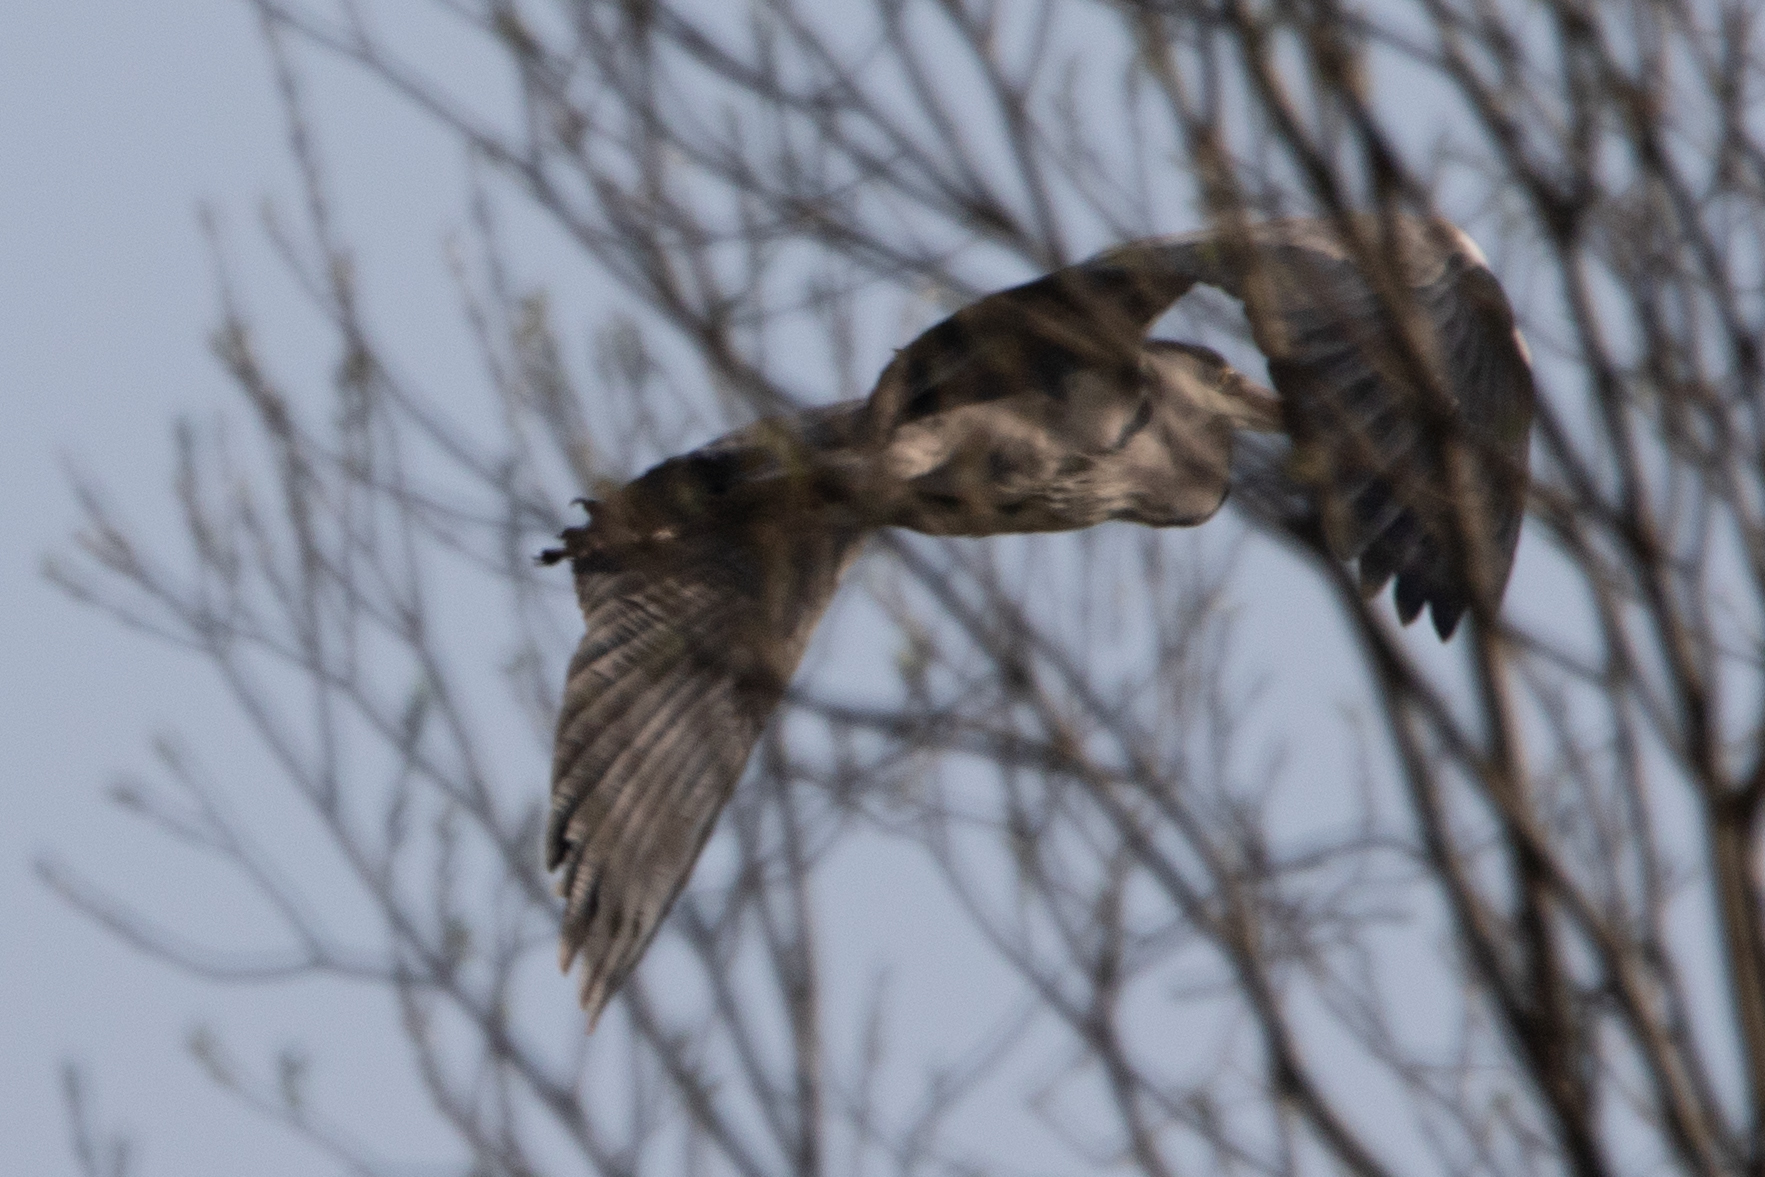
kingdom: Animalia
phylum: Chordata
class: Aves
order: Pelecaniformes
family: Ardeidae
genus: Ardea
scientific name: Ardea cinerea
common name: Grey heron
